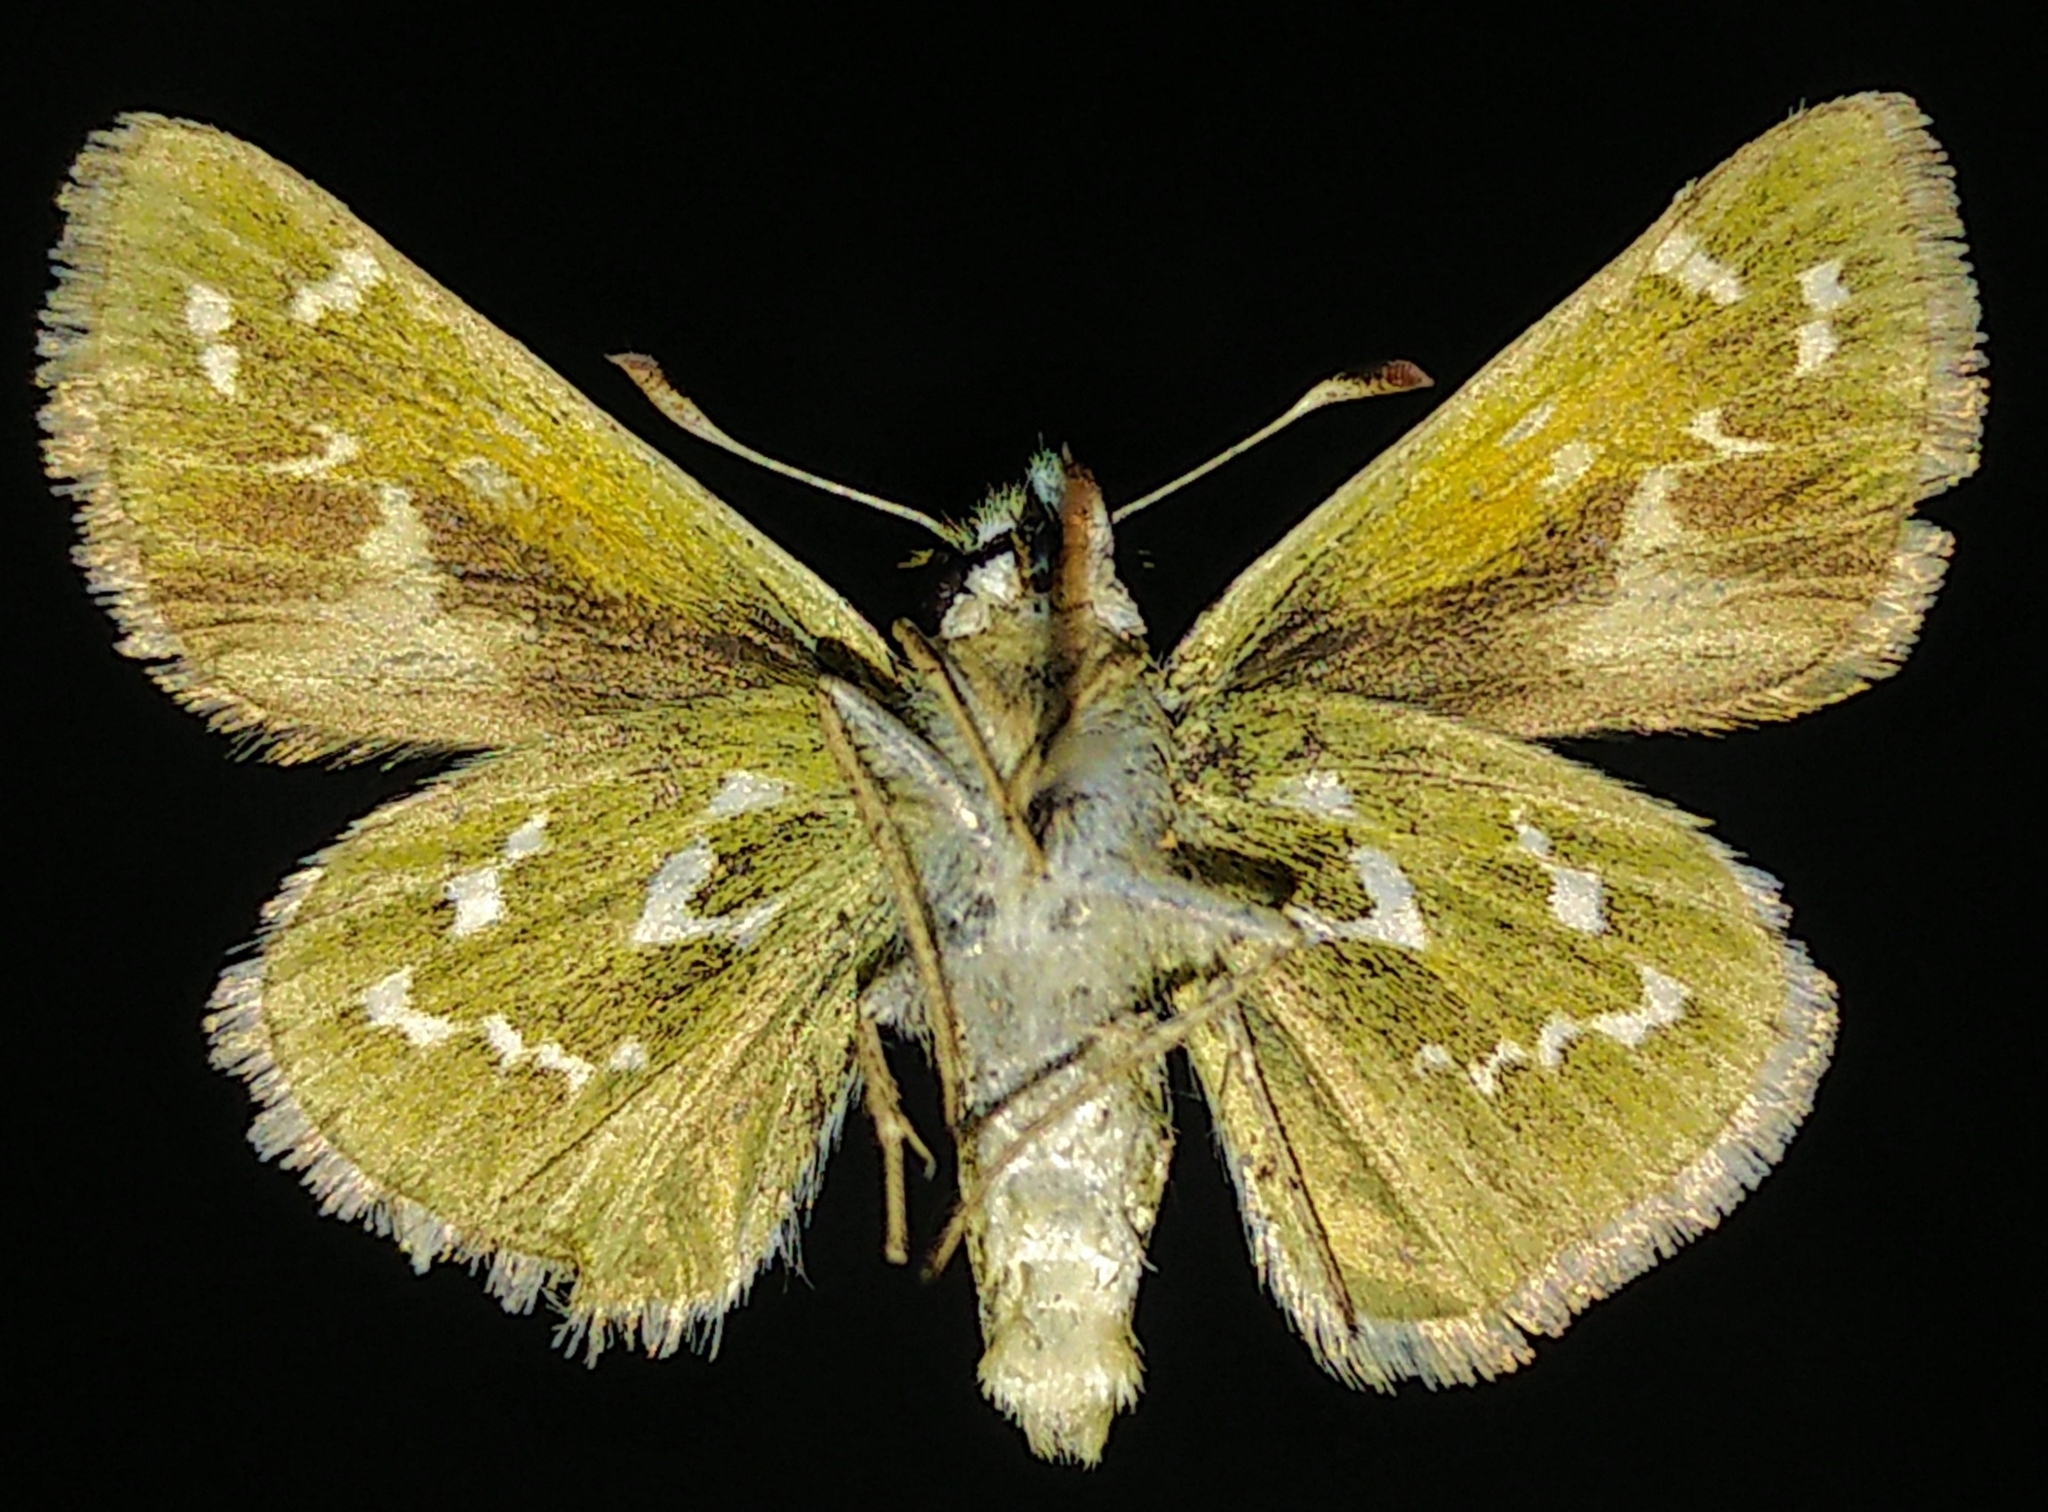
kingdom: Animalia
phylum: Arthropoda
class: Insecta
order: Lepidoptera
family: Hesperiidae
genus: Hesperia
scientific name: Hesperia comma
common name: Common branded skipper
